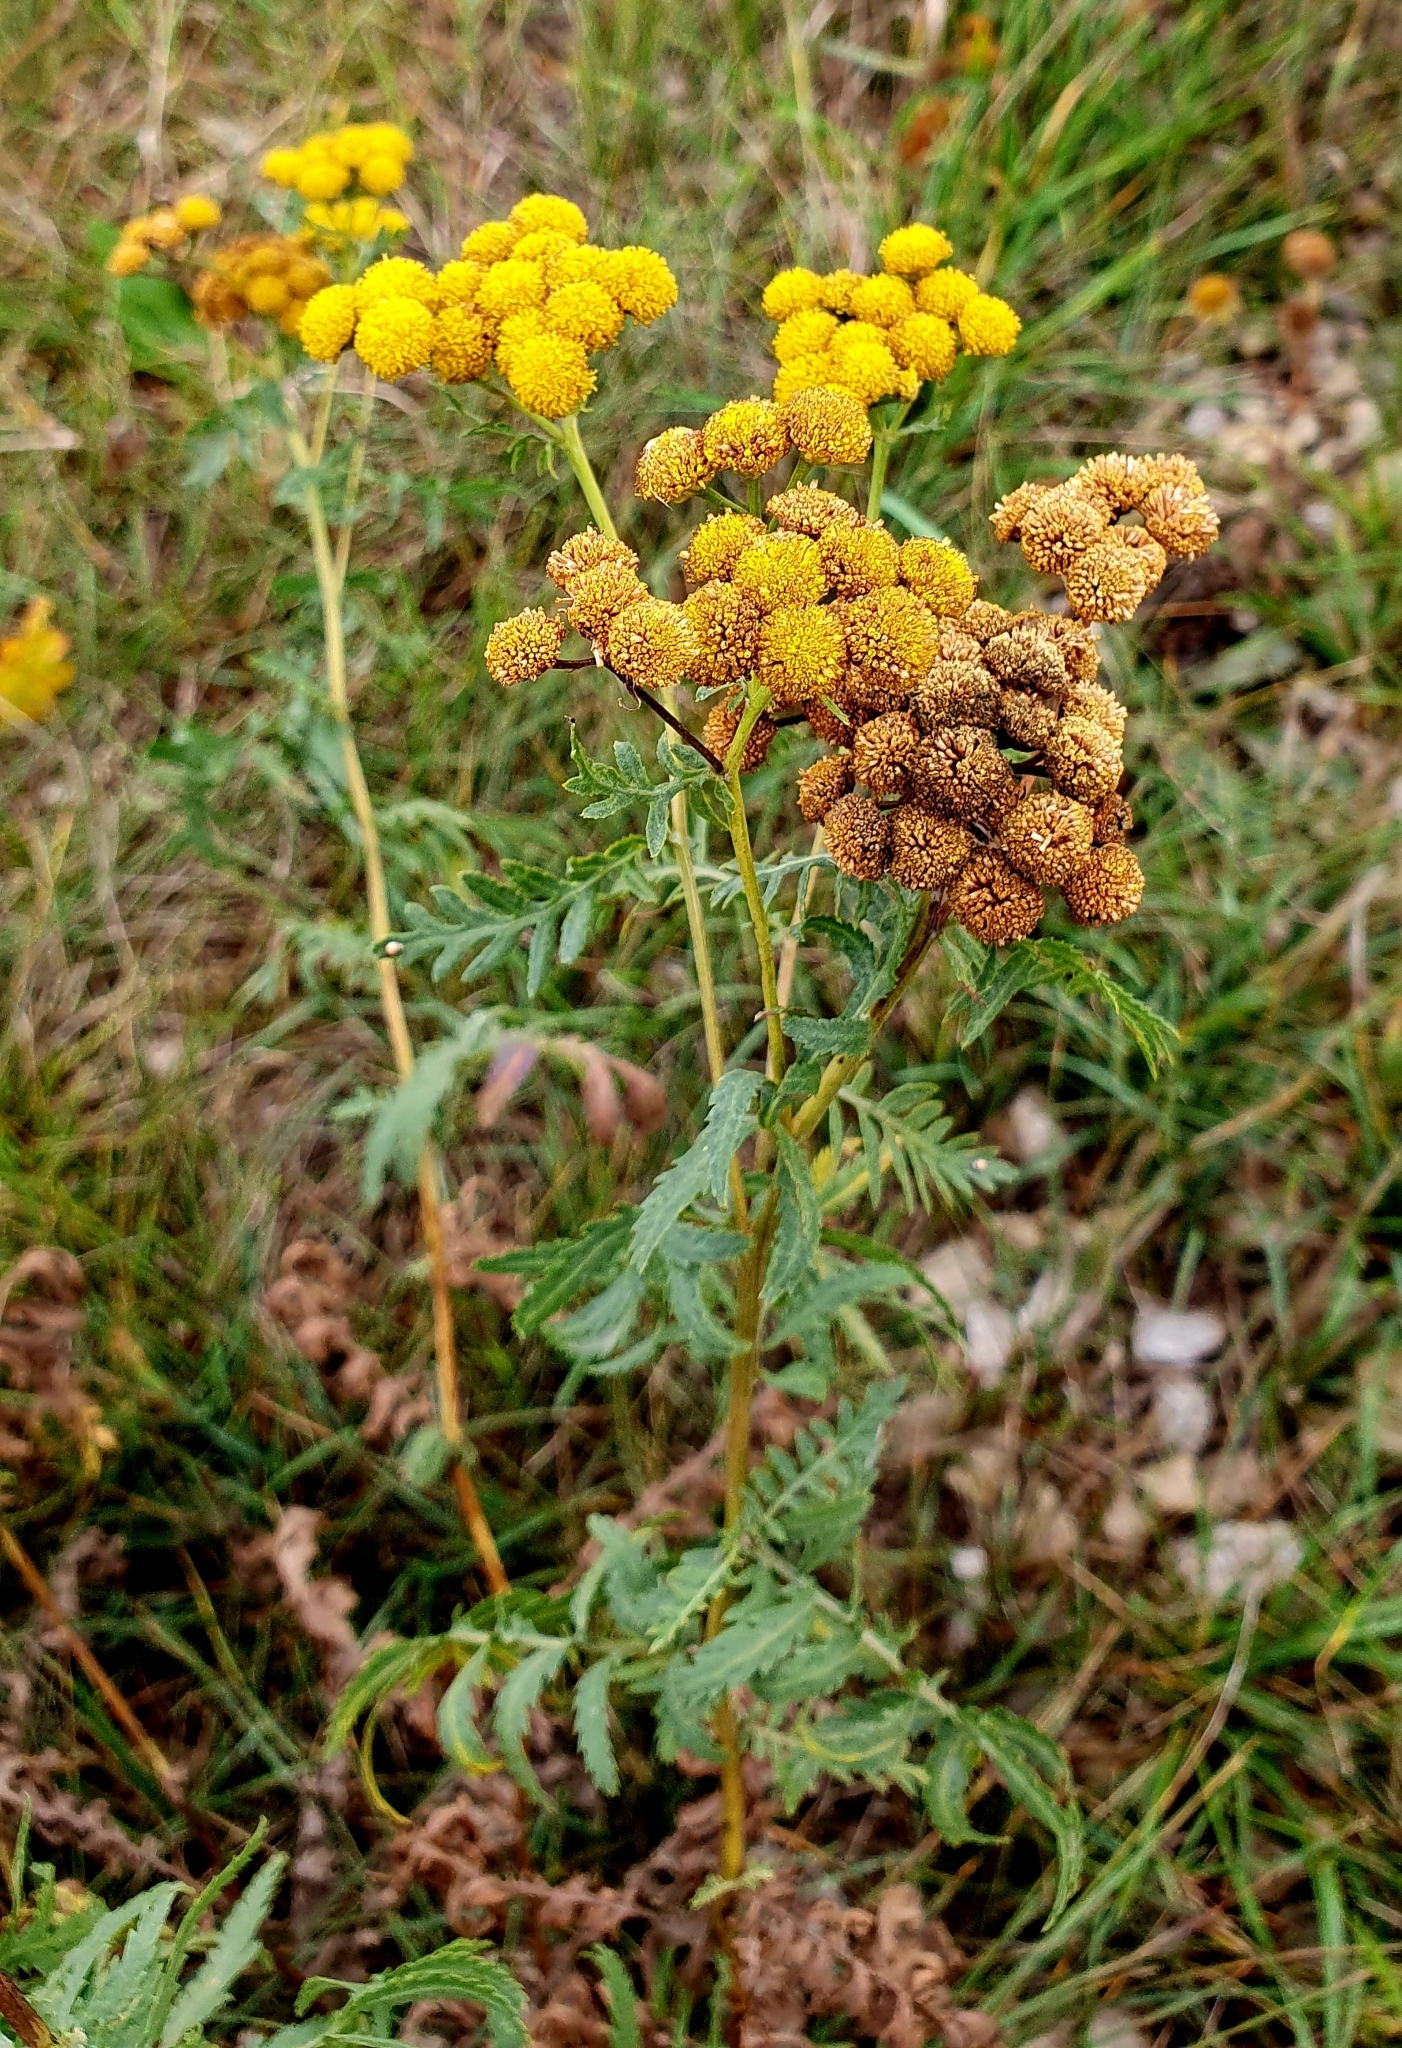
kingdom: Plantae
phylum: Tracheophyta
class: Magnoliopsida
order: Asterales
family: Asteraceae
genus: Tanacetum
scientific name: Tanacetum vulgare
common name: Common tansy
